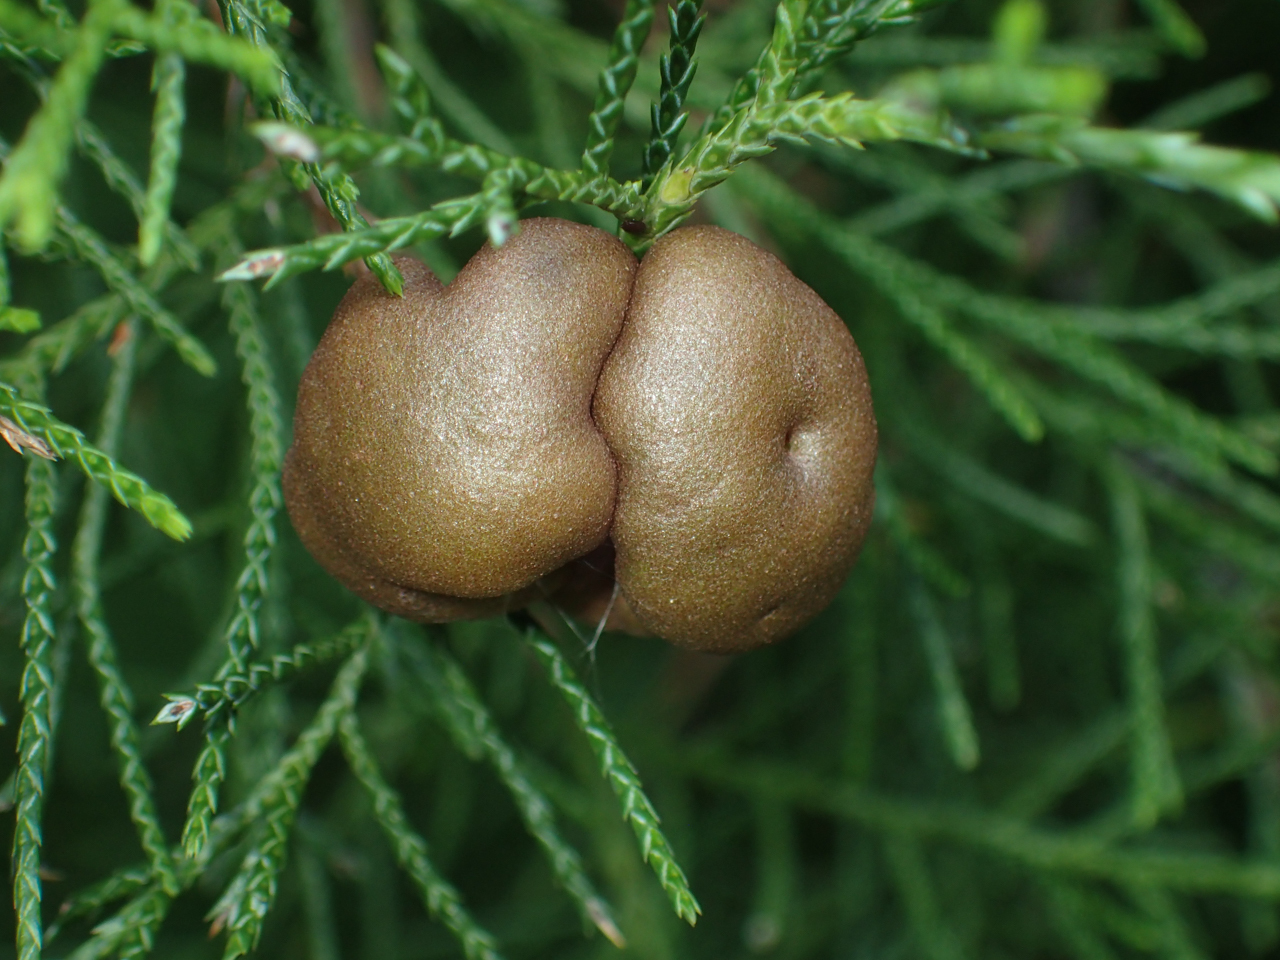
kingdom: Fungi
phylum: Basidiomycota
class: Pucciniomycetes
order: Pucciniales
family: Gymnosporangiaceae
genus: Gymnosporangium
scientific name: Gymnosporangium juniperi-virginianae
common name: Juniper-apple rust
